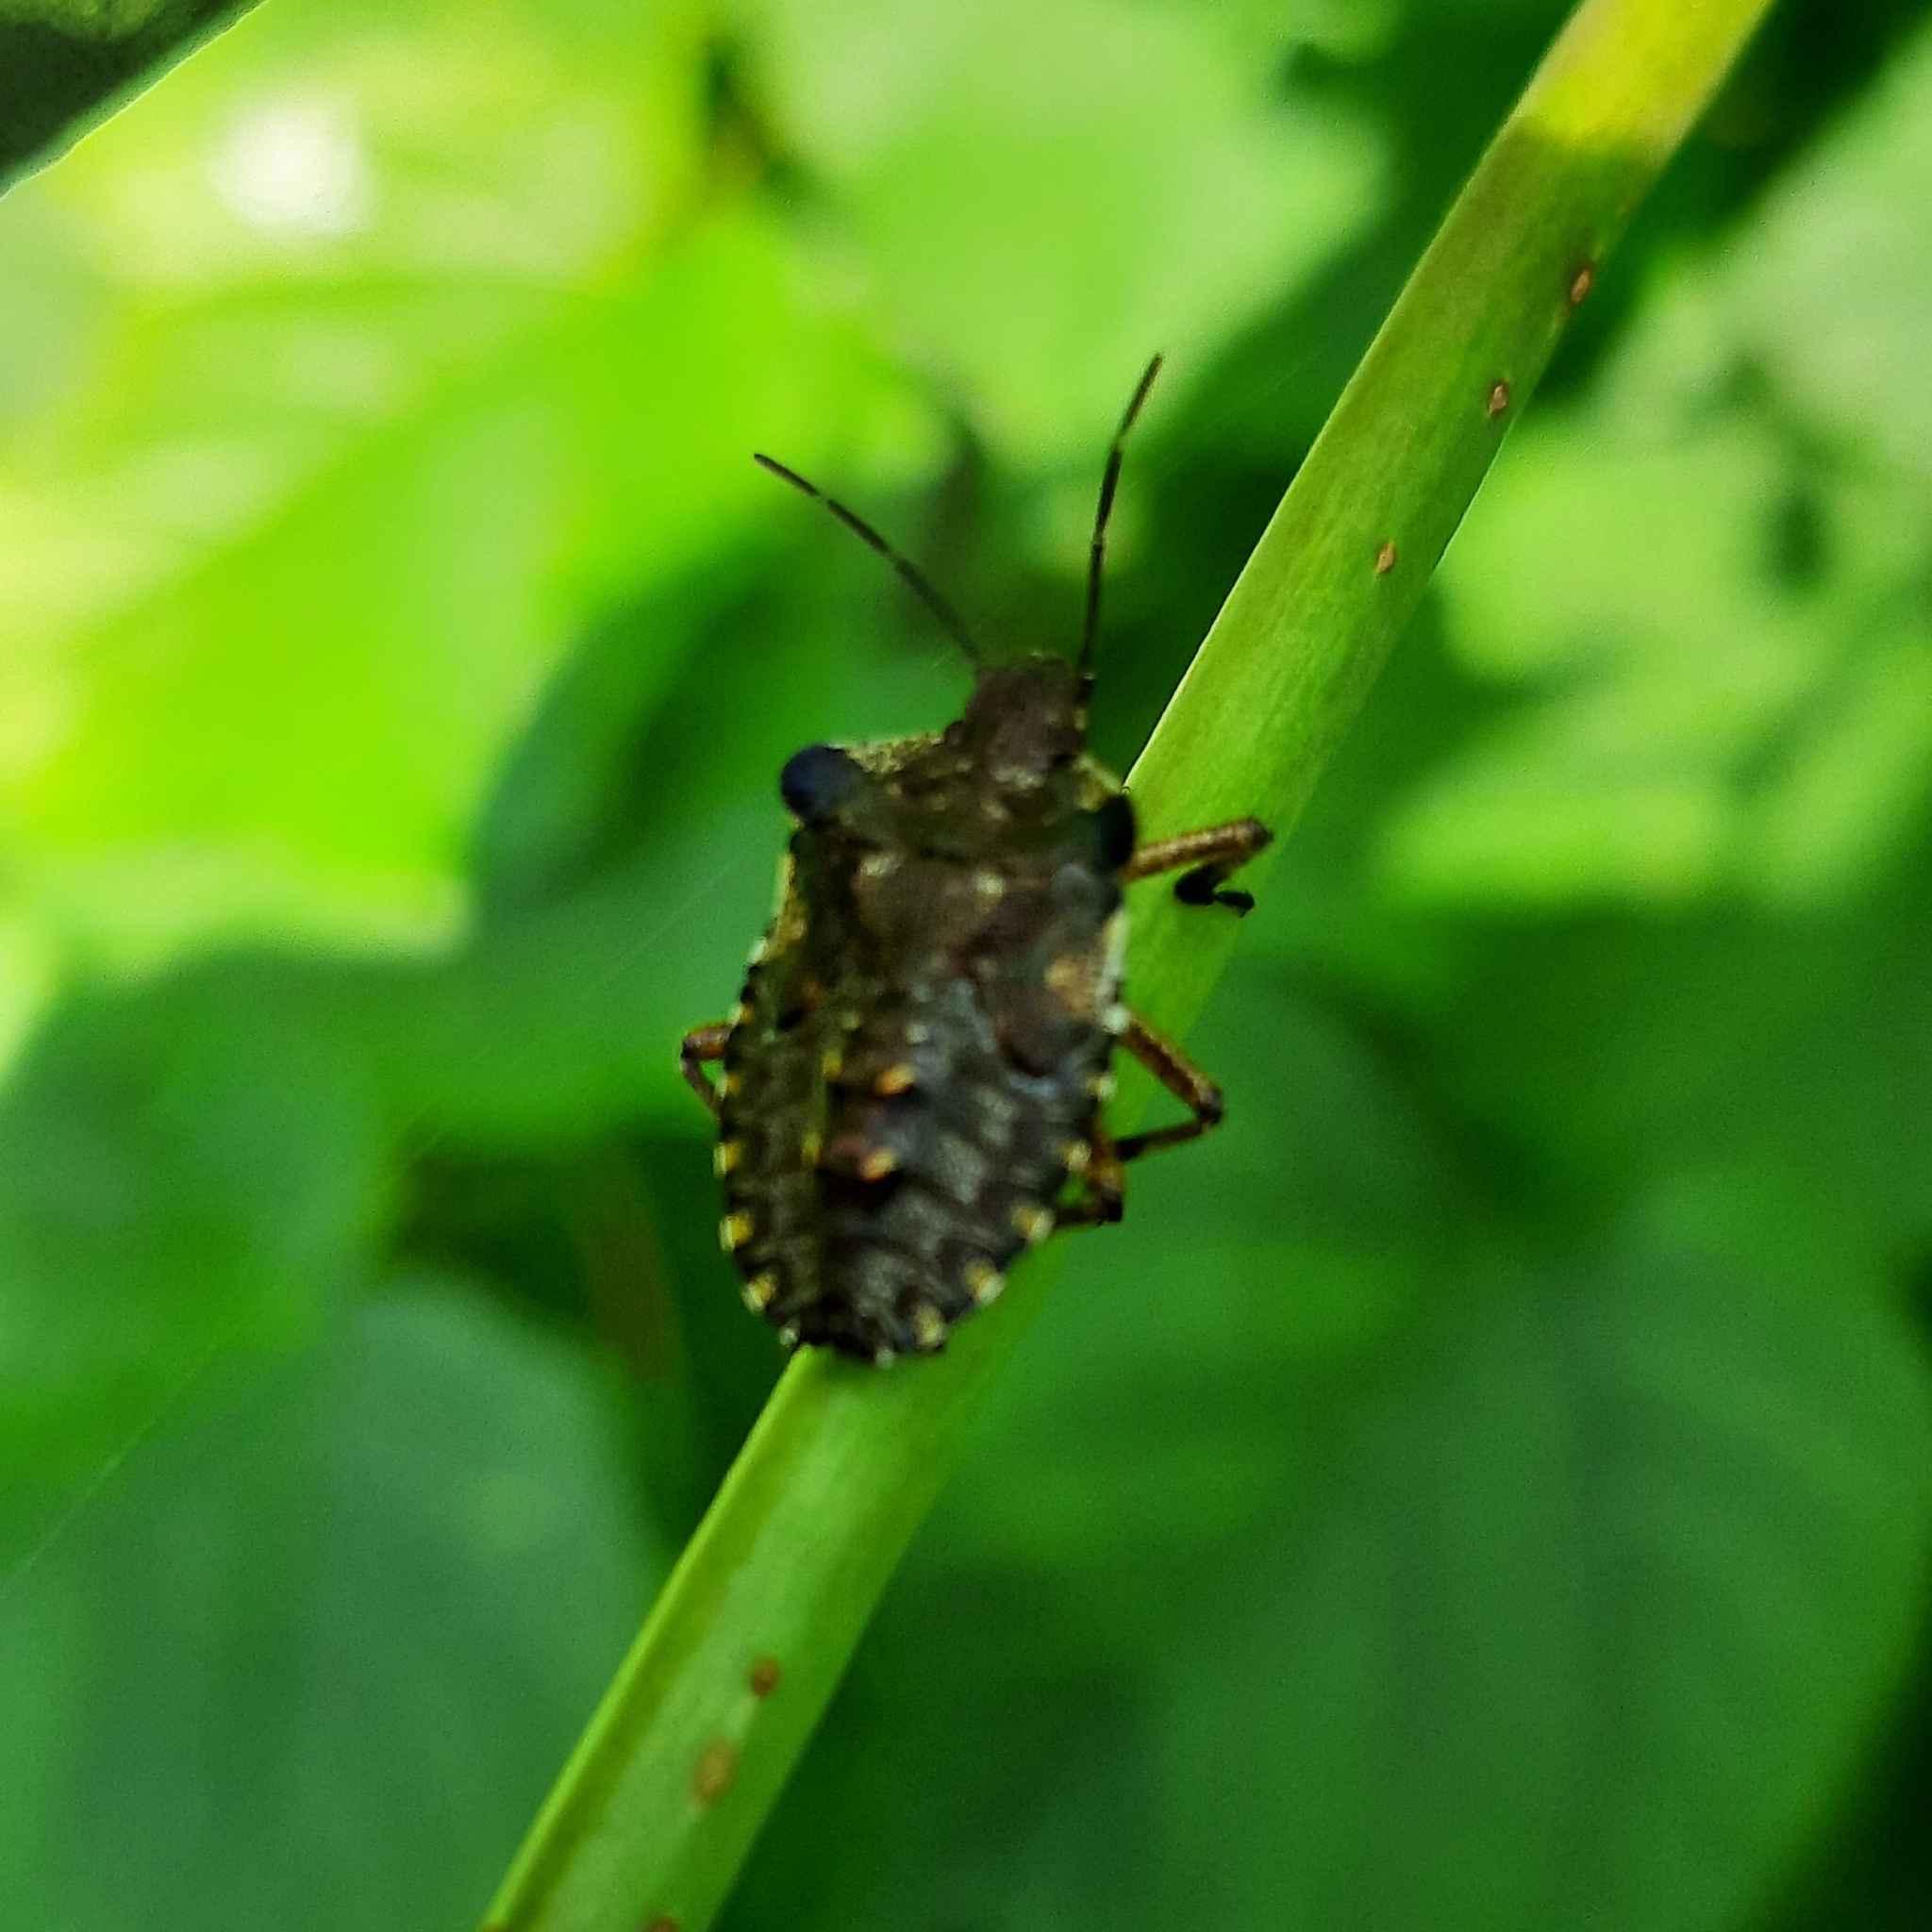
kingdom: Animalia
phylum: Arthropoda
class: Insecta
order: Hemiptera
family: Pentatomidae
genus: Pentatoma
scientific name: Pentatoma rufipes
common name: Forest bug
